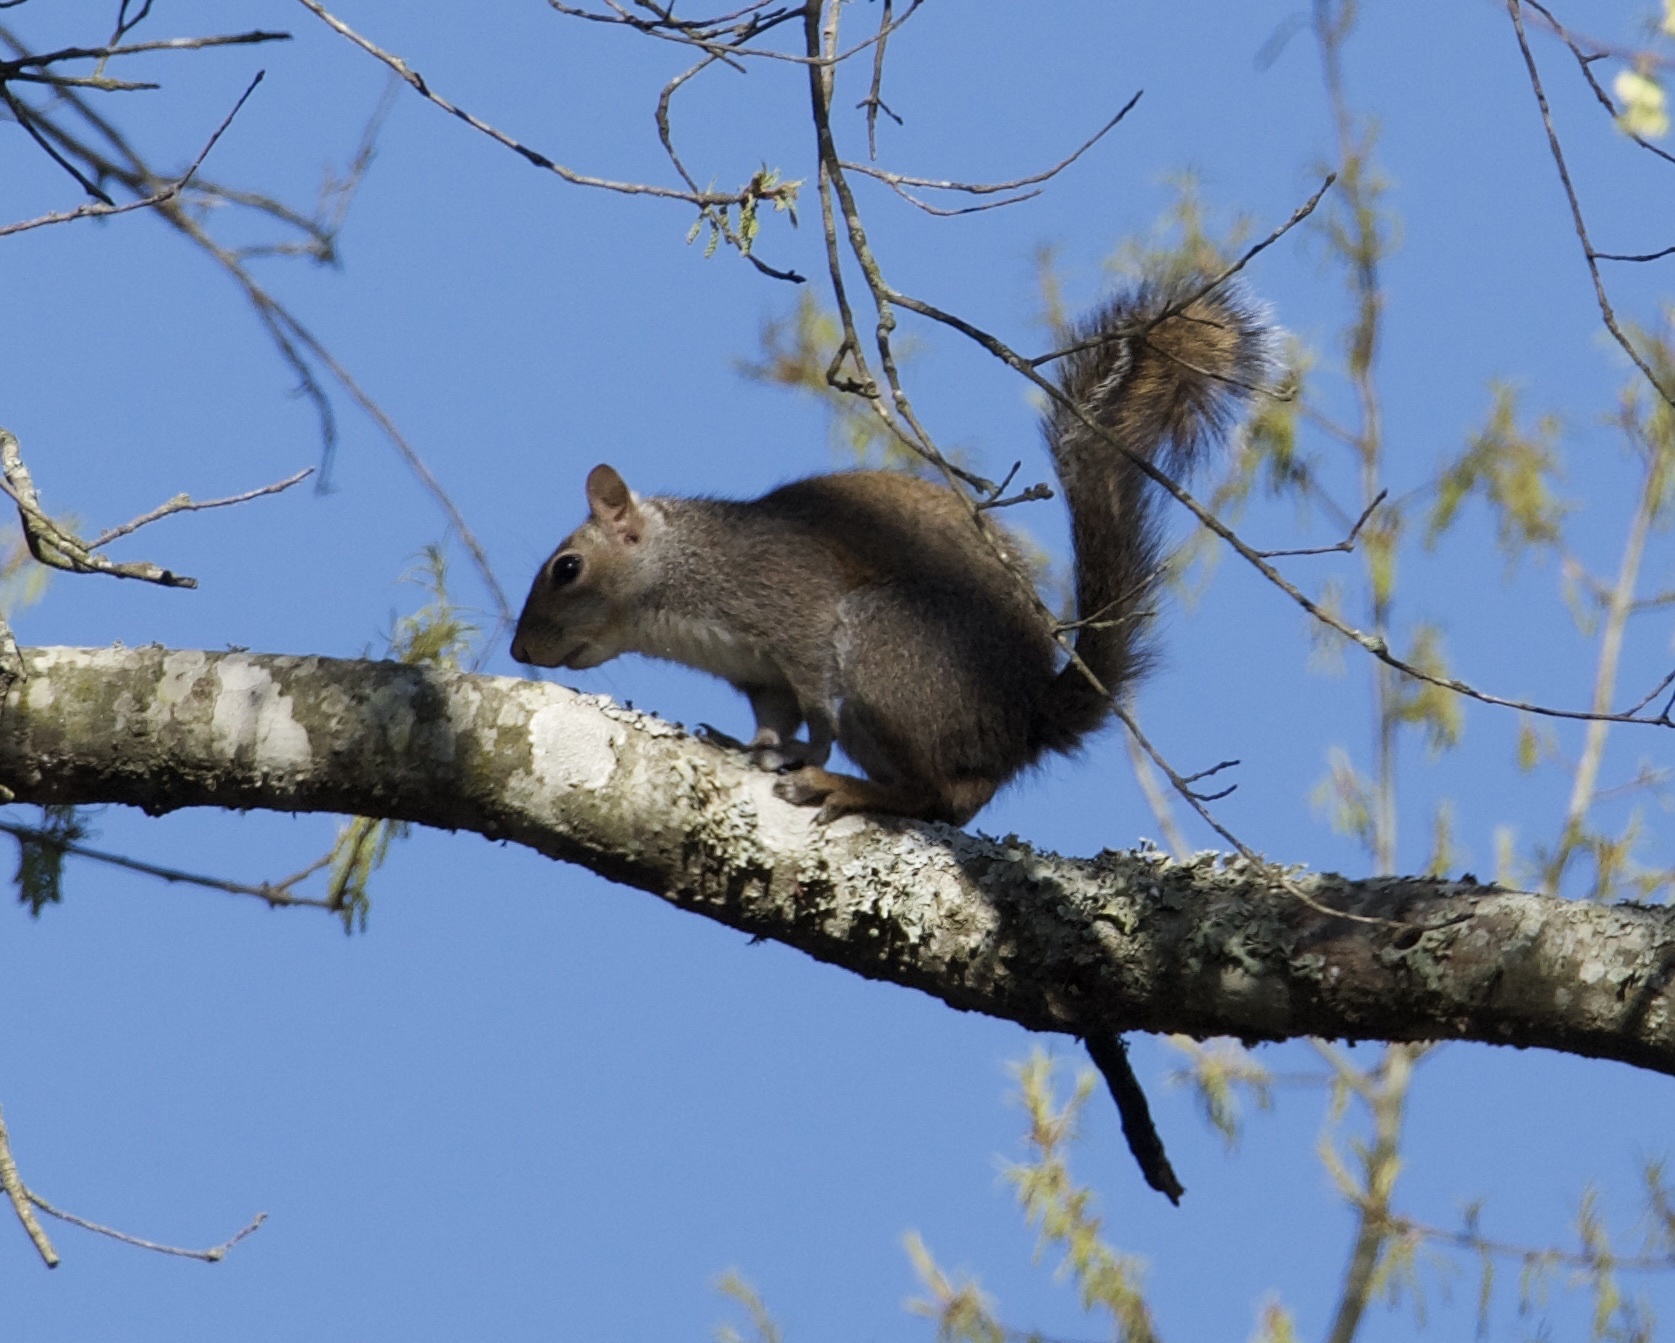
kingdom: Animalia
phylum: Chordata
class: Mammalia
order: Rodentia
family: Sciuridae
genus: Sciurus
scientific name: Sciurus carolinensis
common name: Eastern gray squirrel
